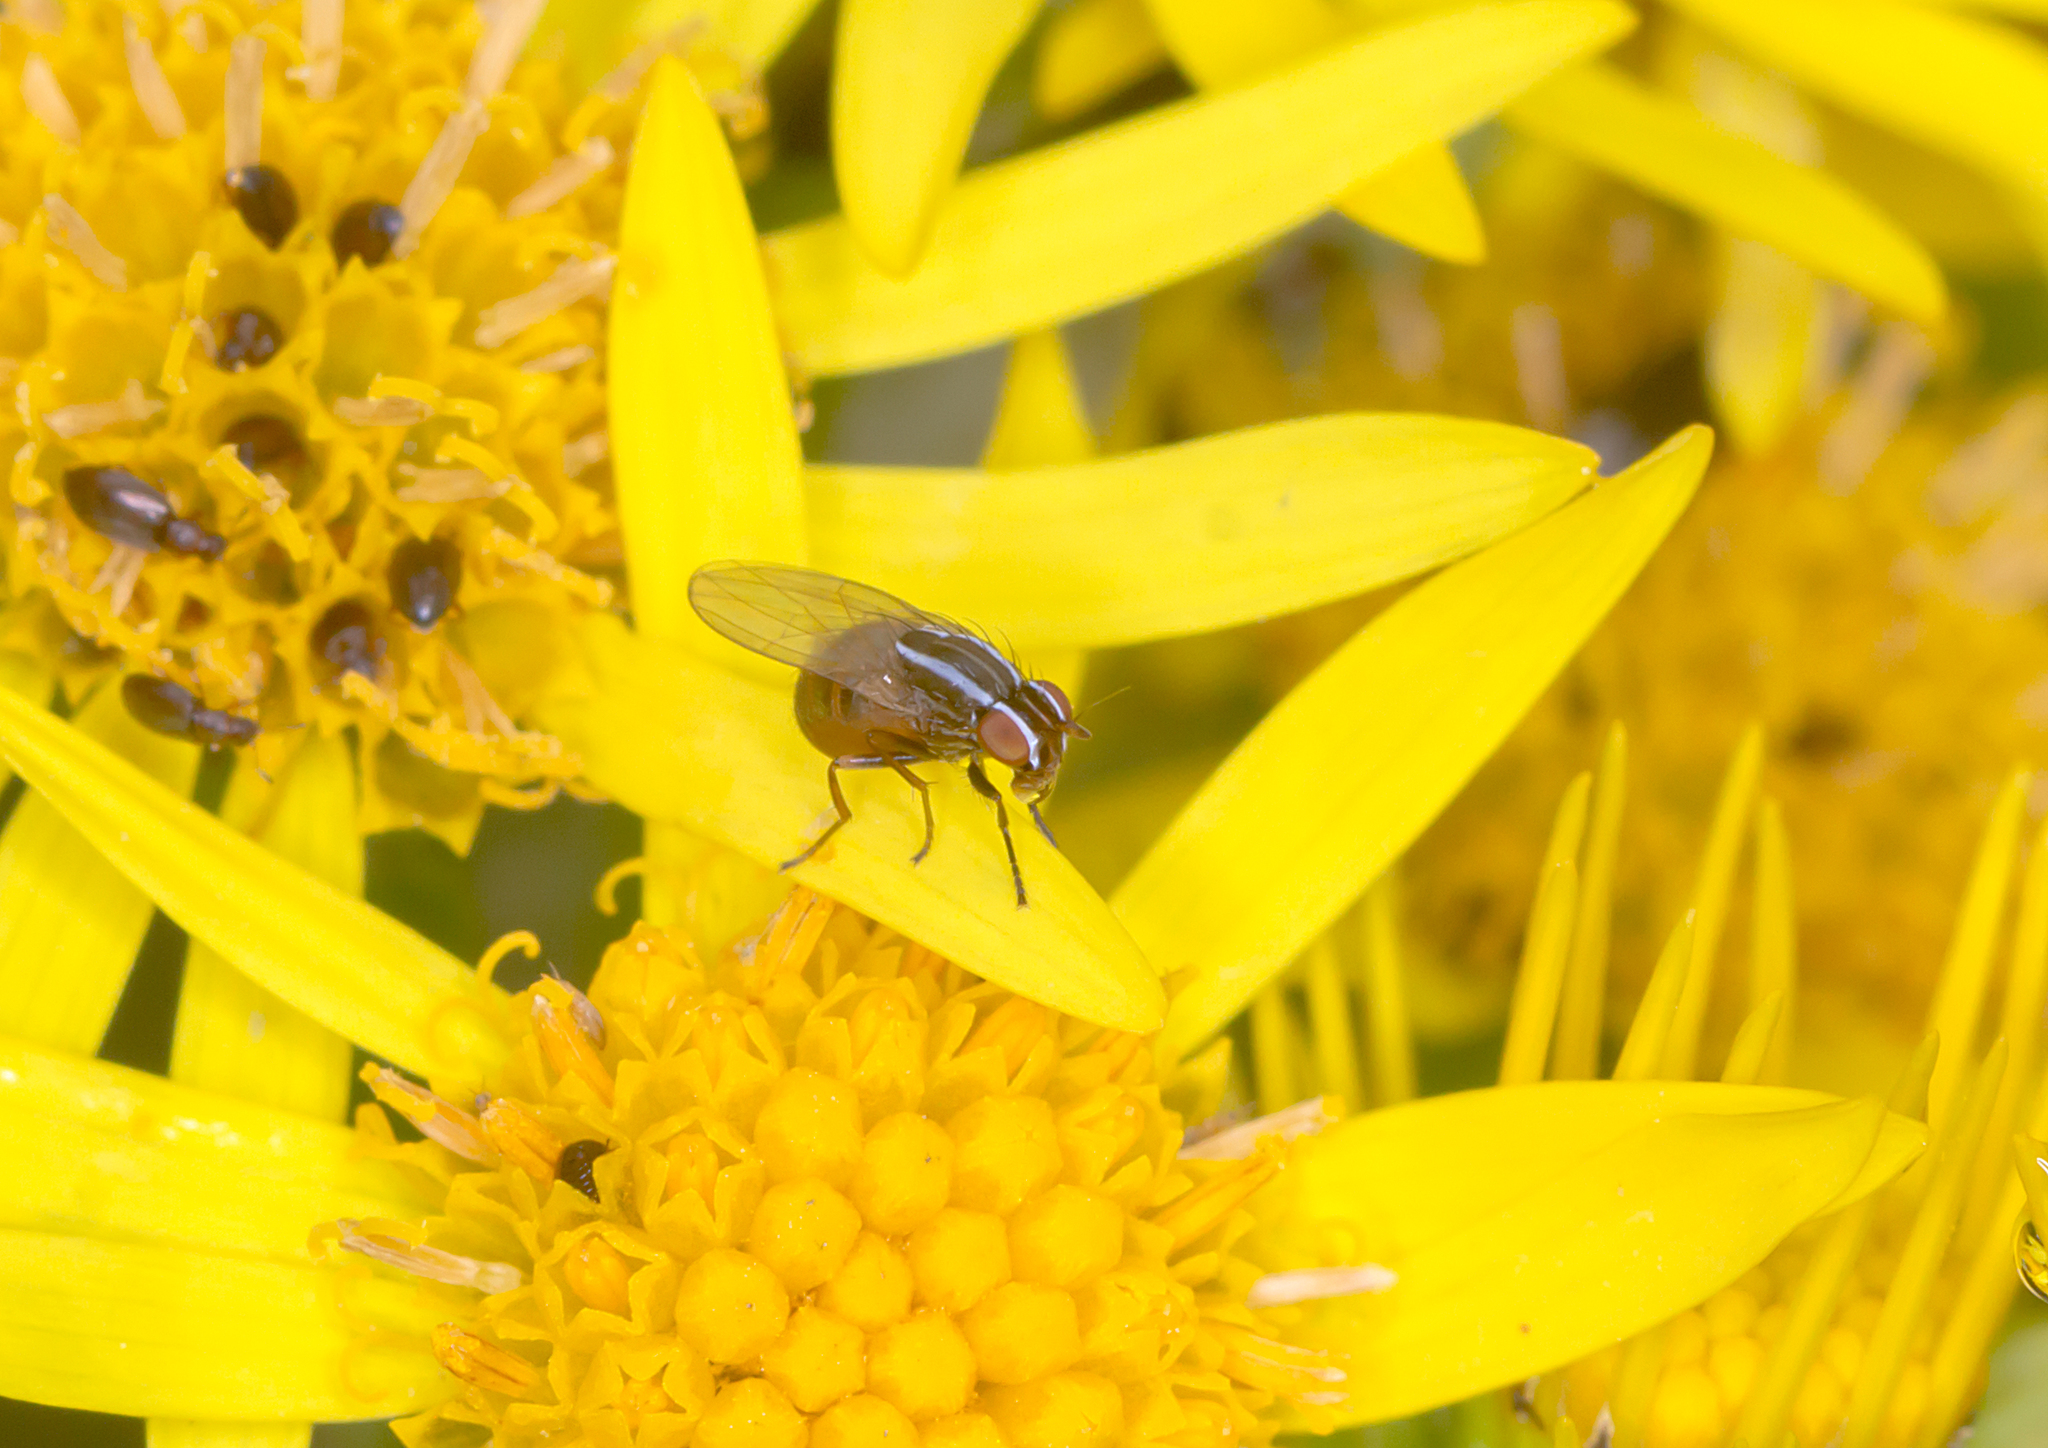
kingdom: Animalia
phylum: Arthropoda
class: Insecta
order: Diptera
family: Lauxaniidae
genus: Poecilohetaerus
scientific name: Poecilohetaerus aquilus
